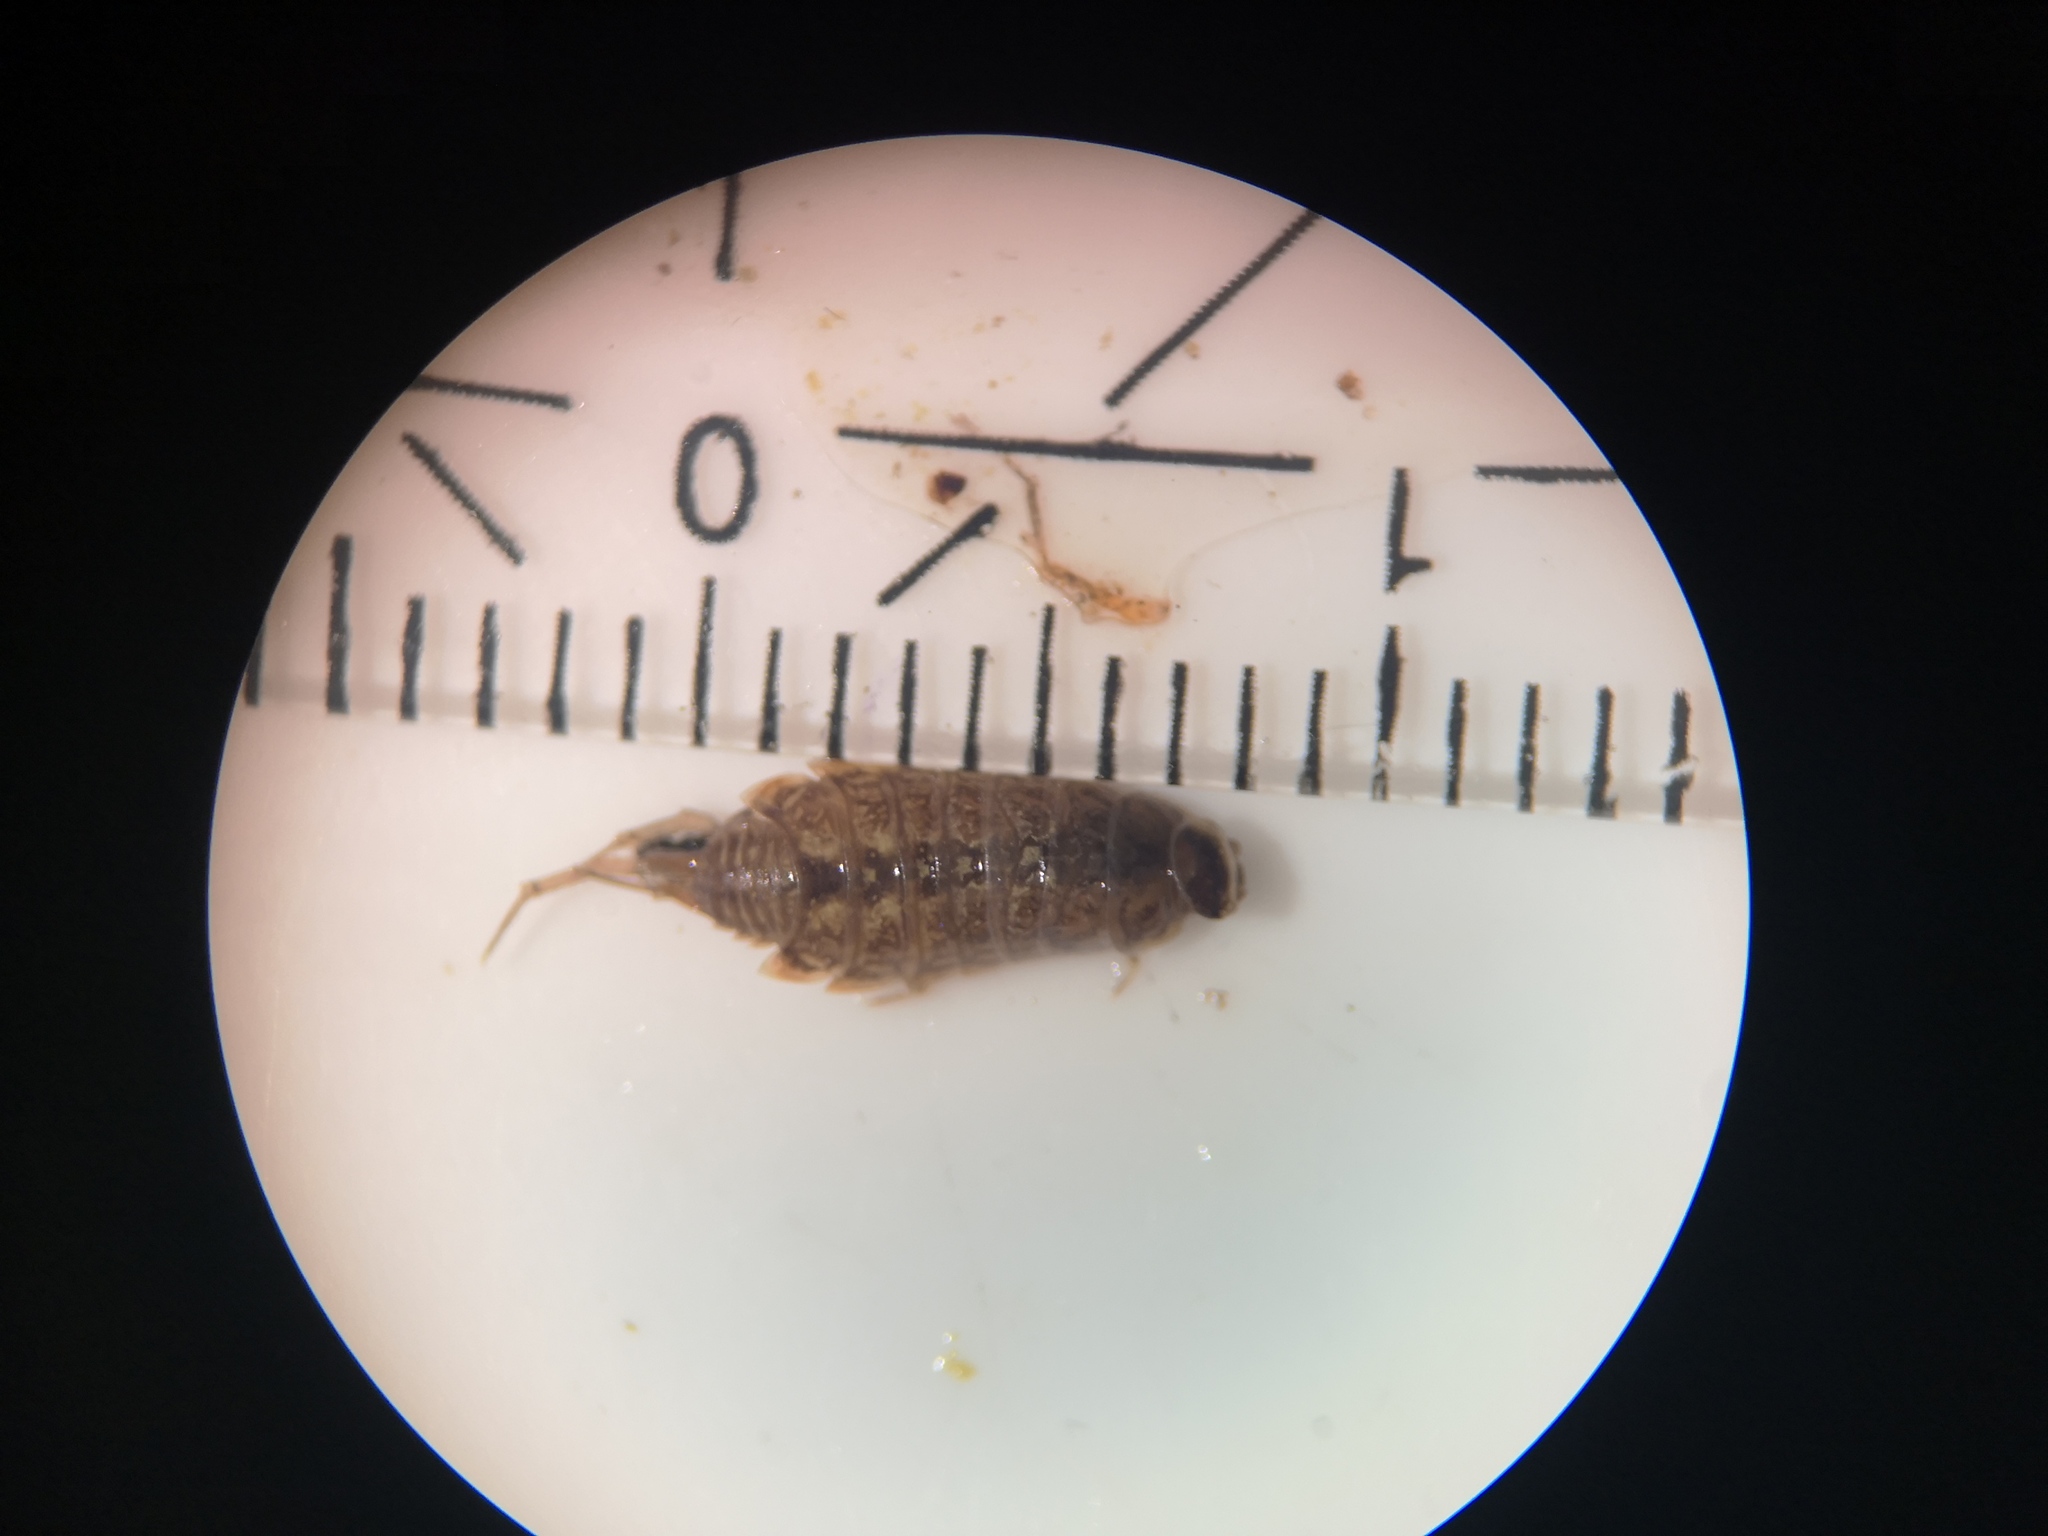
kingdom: Animalia
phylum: Arthropoda
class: Malacostraca
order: Isopoda
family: Philosciidae
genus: Philoscia
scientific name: Philoscia muscorum
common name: Common striped woodlouse
